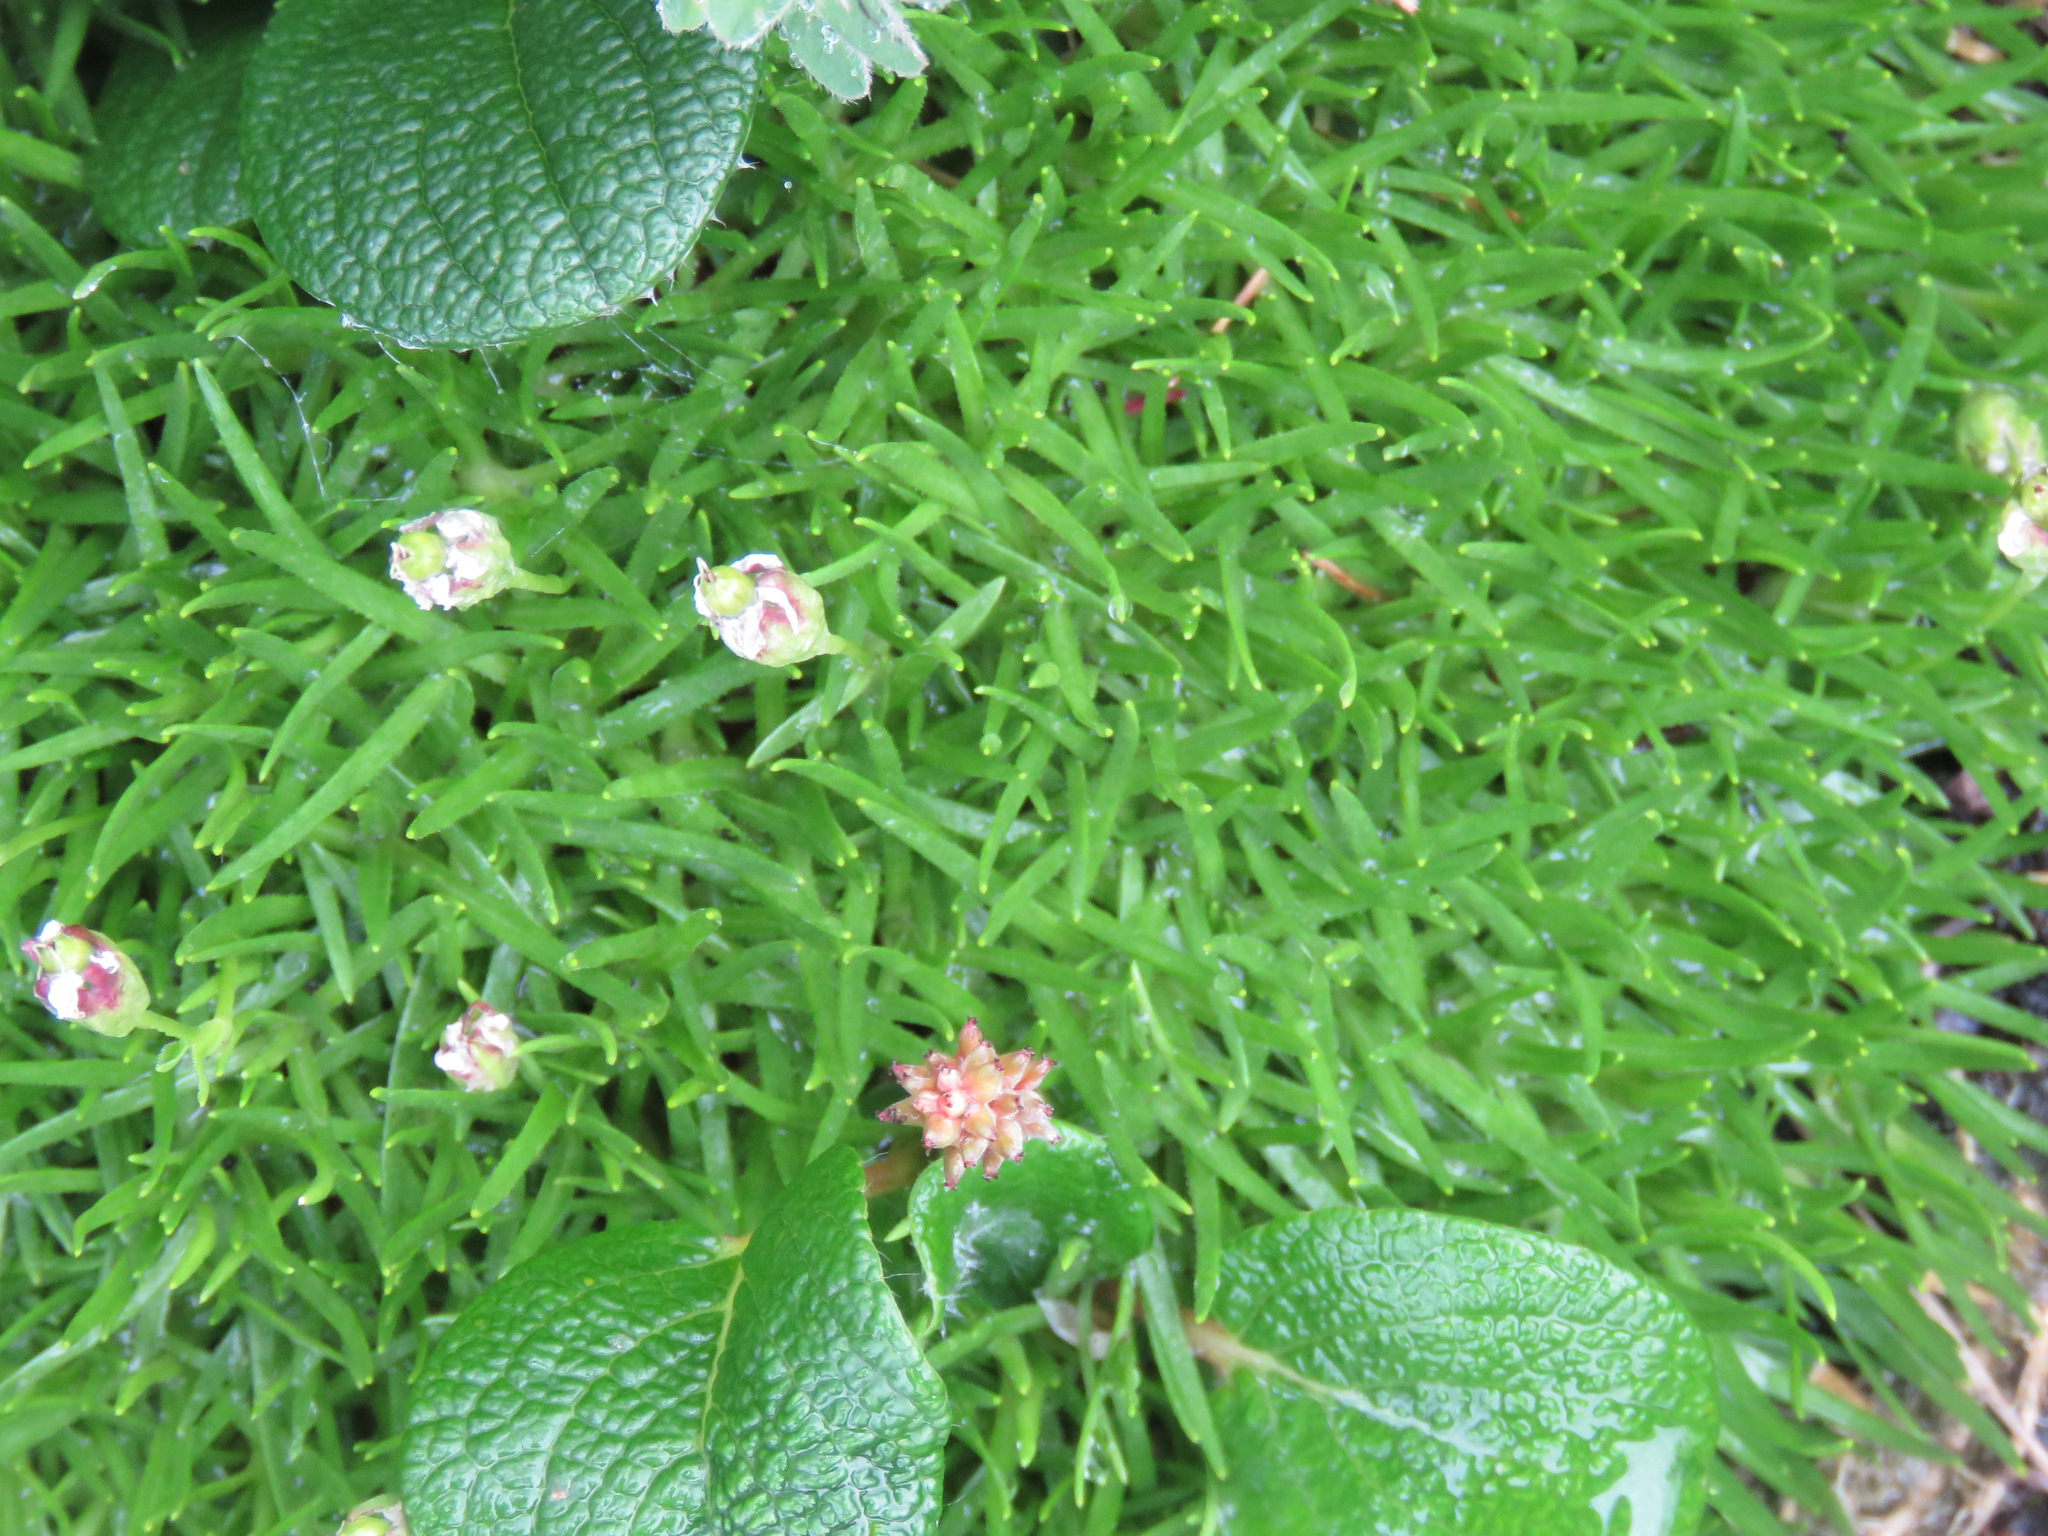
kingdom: Plantae
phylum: Tracheophyta
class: Magnoliopsida
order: Caryophyllales
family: Caryophyllaceae
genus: Silene
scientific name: Silene acaulis
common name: Moss campion
